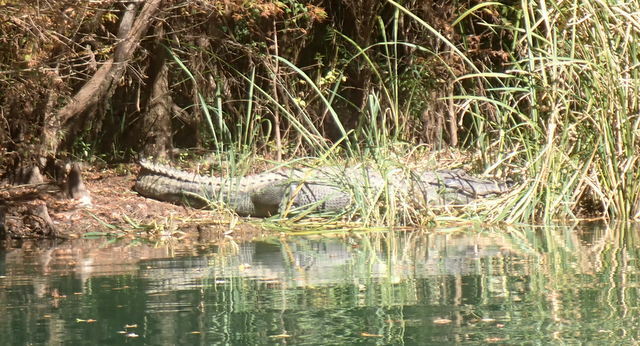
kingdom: Animalia
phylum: Chordata
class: Crocodylia
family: Alligatoridae
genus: Alligator
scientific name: Alligator mississippiensis
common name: American alligator
